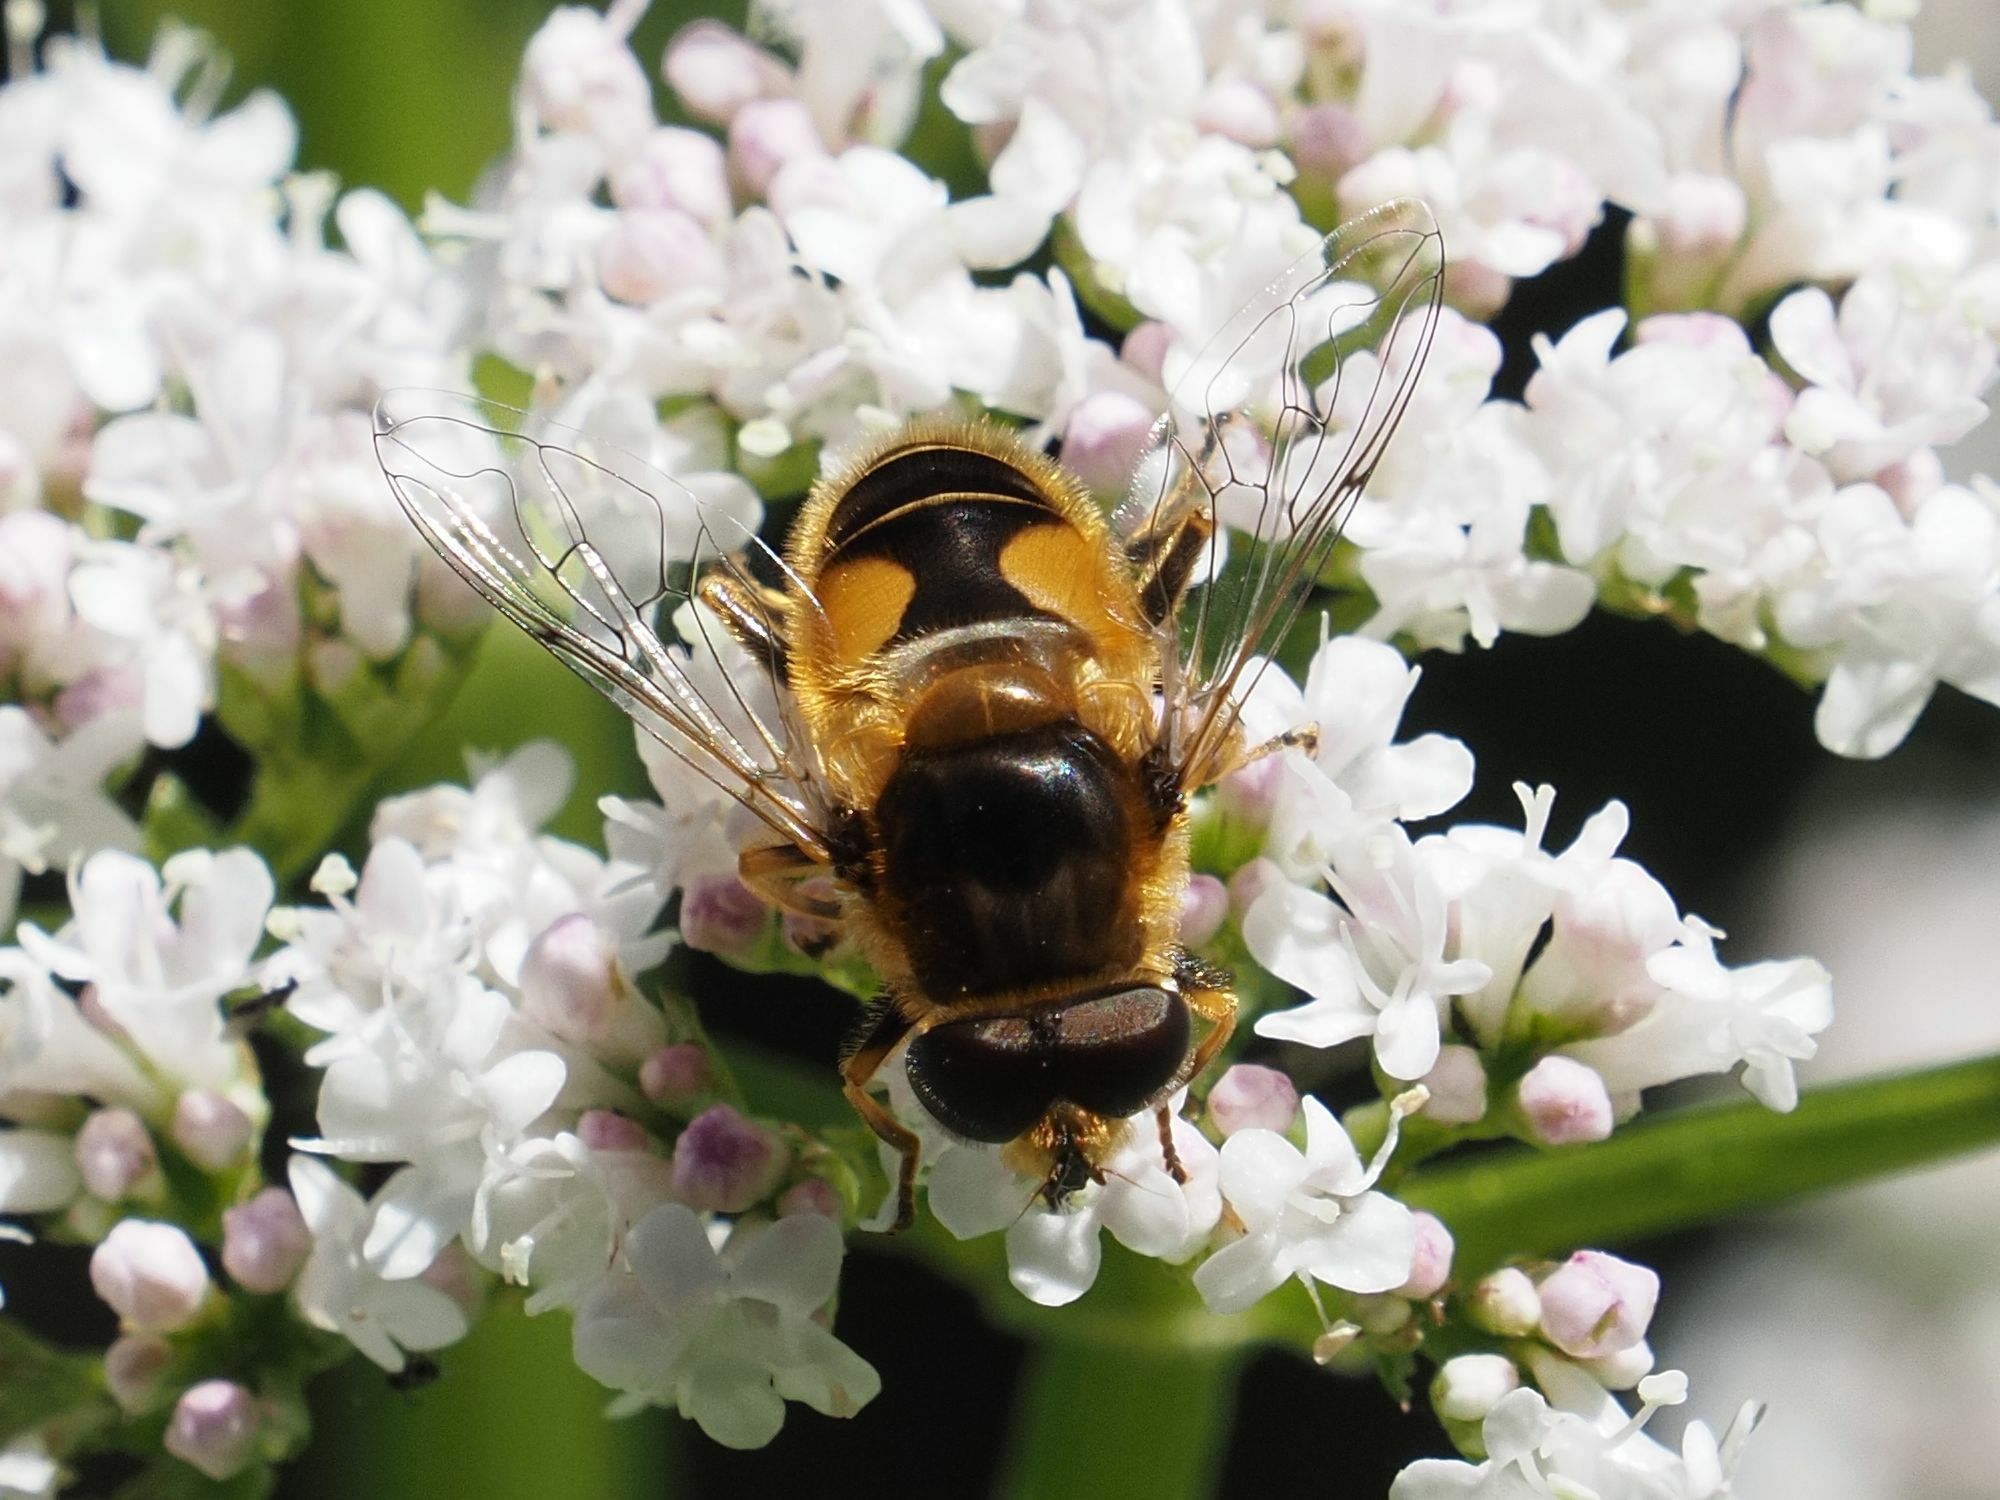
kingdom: Animalia
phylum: Arthropoda
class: Insecta
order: Diptera
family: Syrphidae
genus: Eristalis
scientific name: Eristalis jugorum
